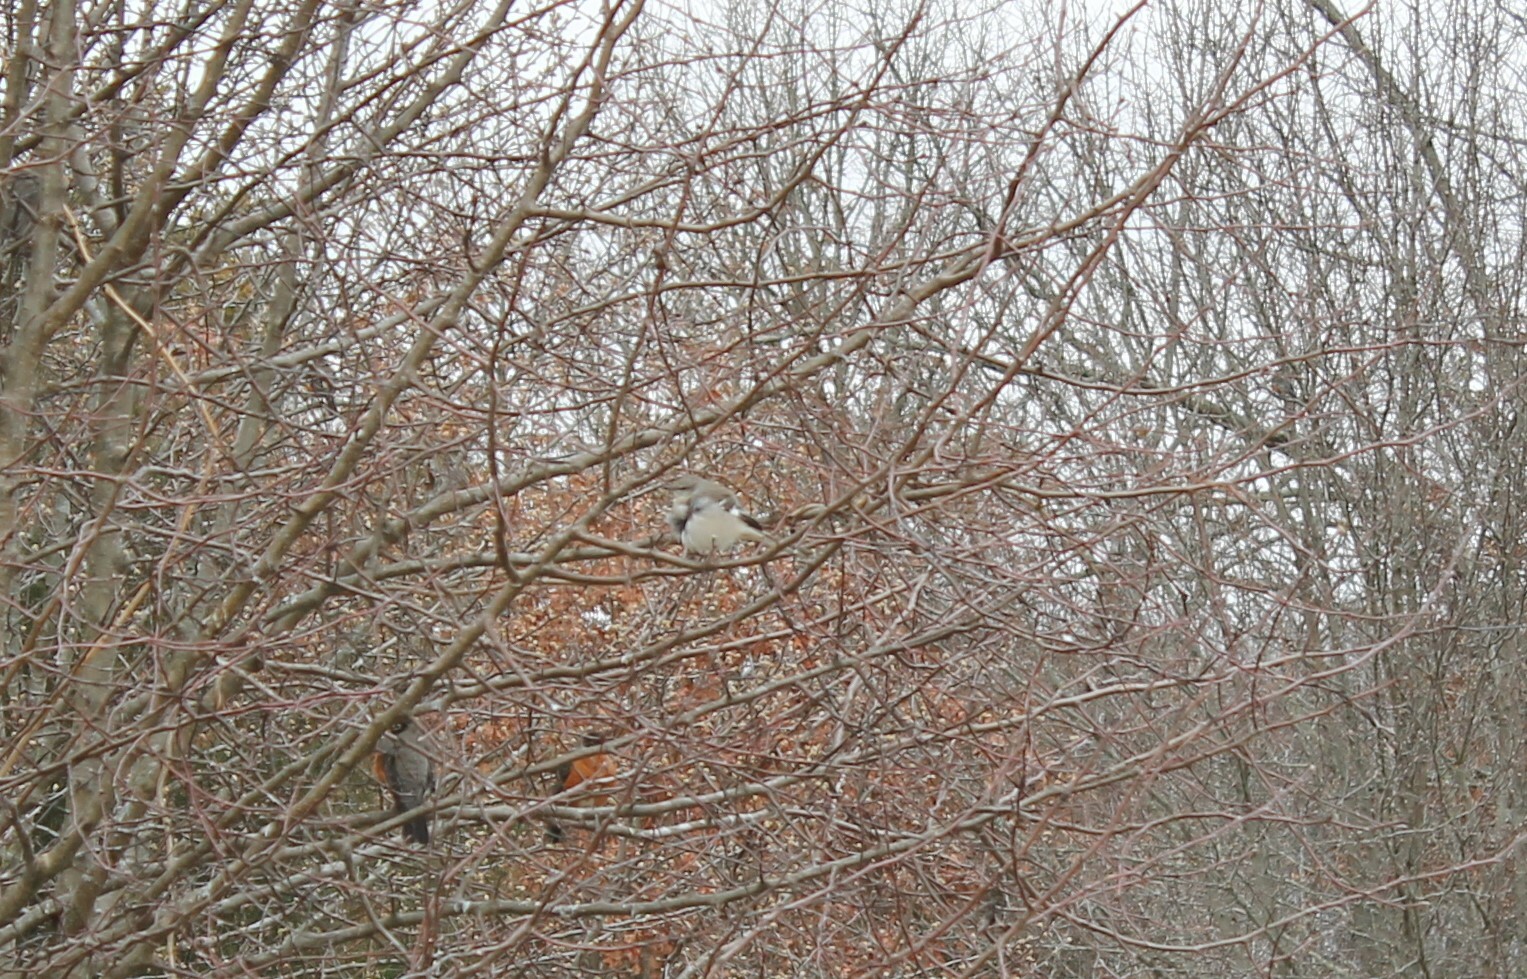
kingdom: Animalia
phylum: Chordata
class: Aves
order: Passeriformes
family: Mimidae
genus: Mimus
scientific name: Mimus polyglottos
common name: Northern mockingbird
